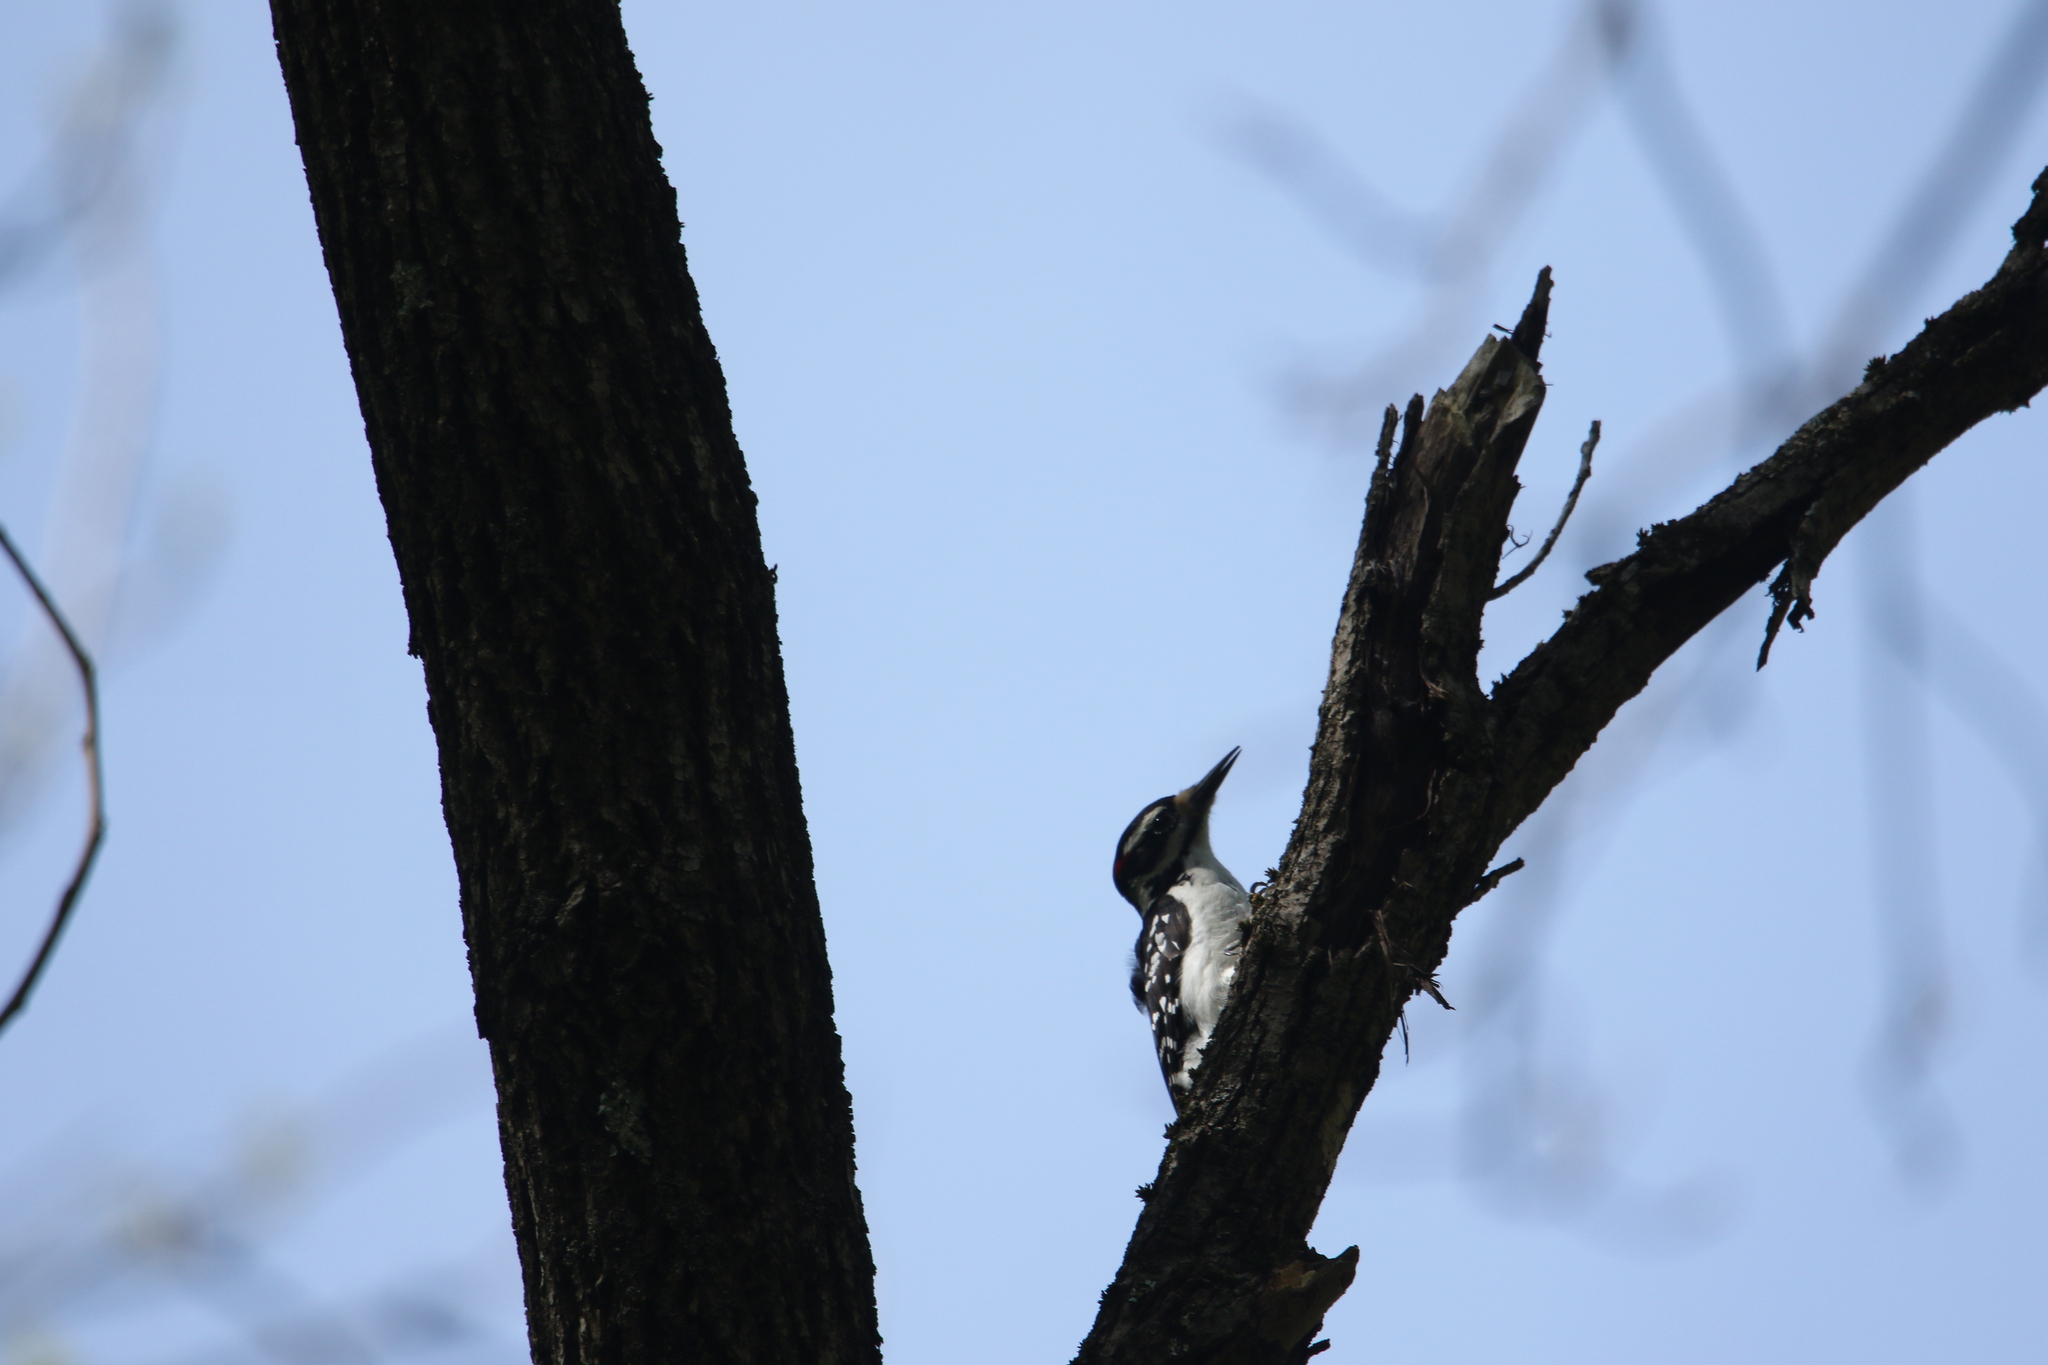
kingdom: Animalia
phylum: Chordata
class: Aves
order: Piciformes
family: Picidae
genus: Leuconotopicus
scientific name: Leuconotopicus villosus
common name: Hairy woodpecker
